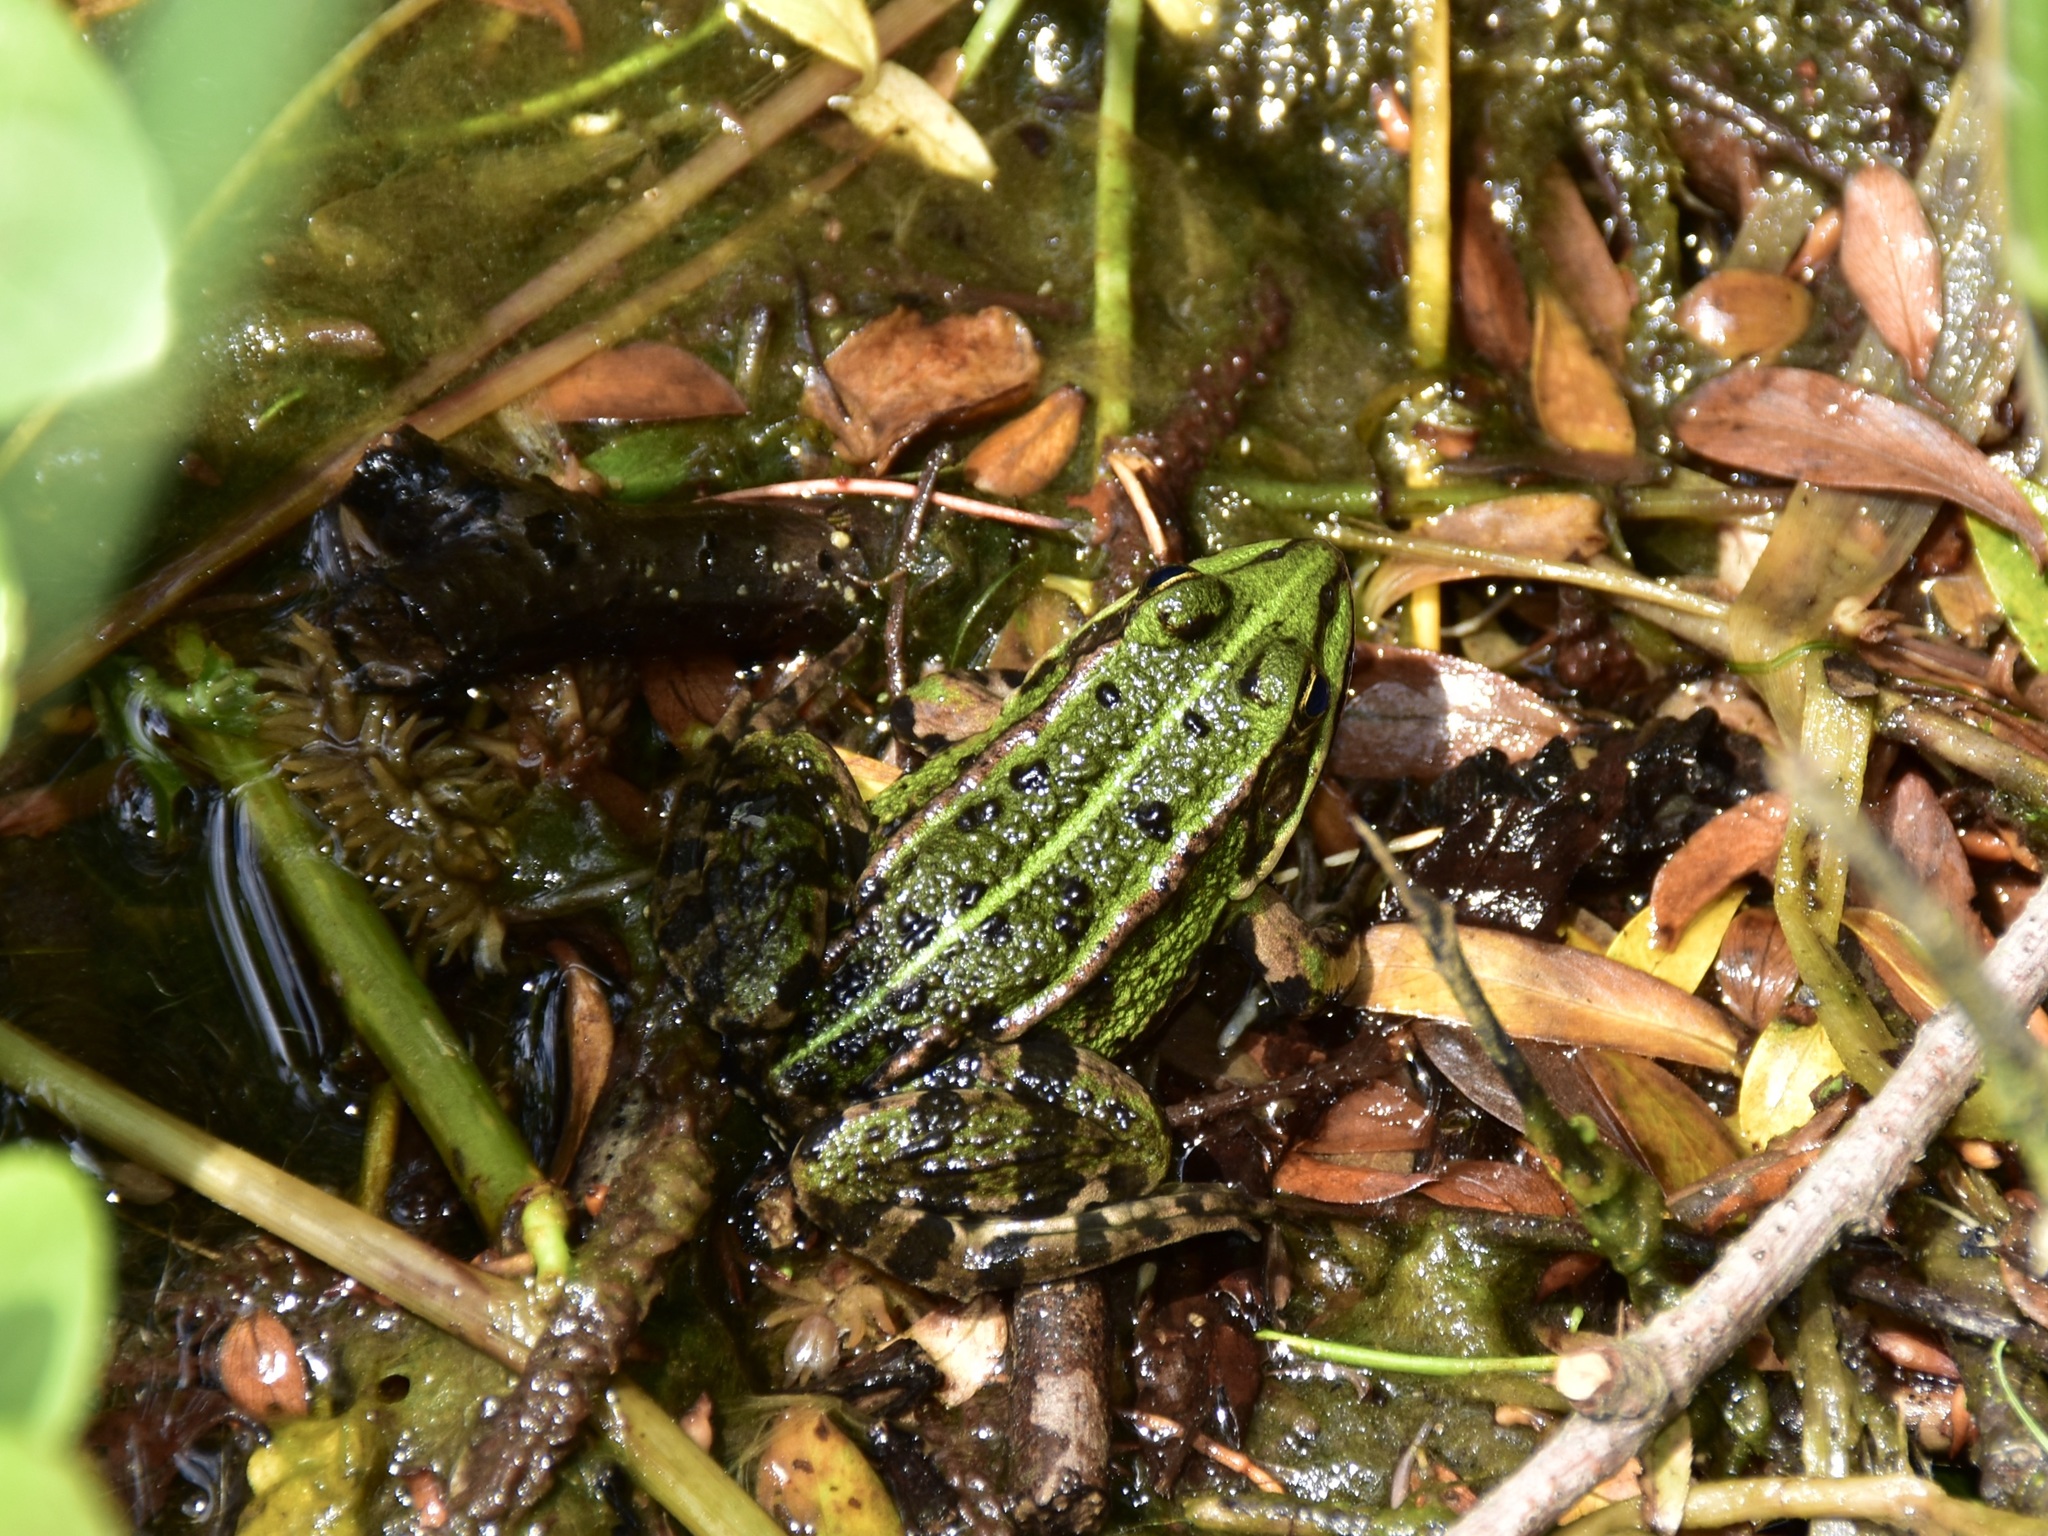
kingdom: Animalia
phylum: Chordata
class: Amphibia
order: Anura
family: Ranidae
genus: Pelophylax
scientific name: Pelophylax
